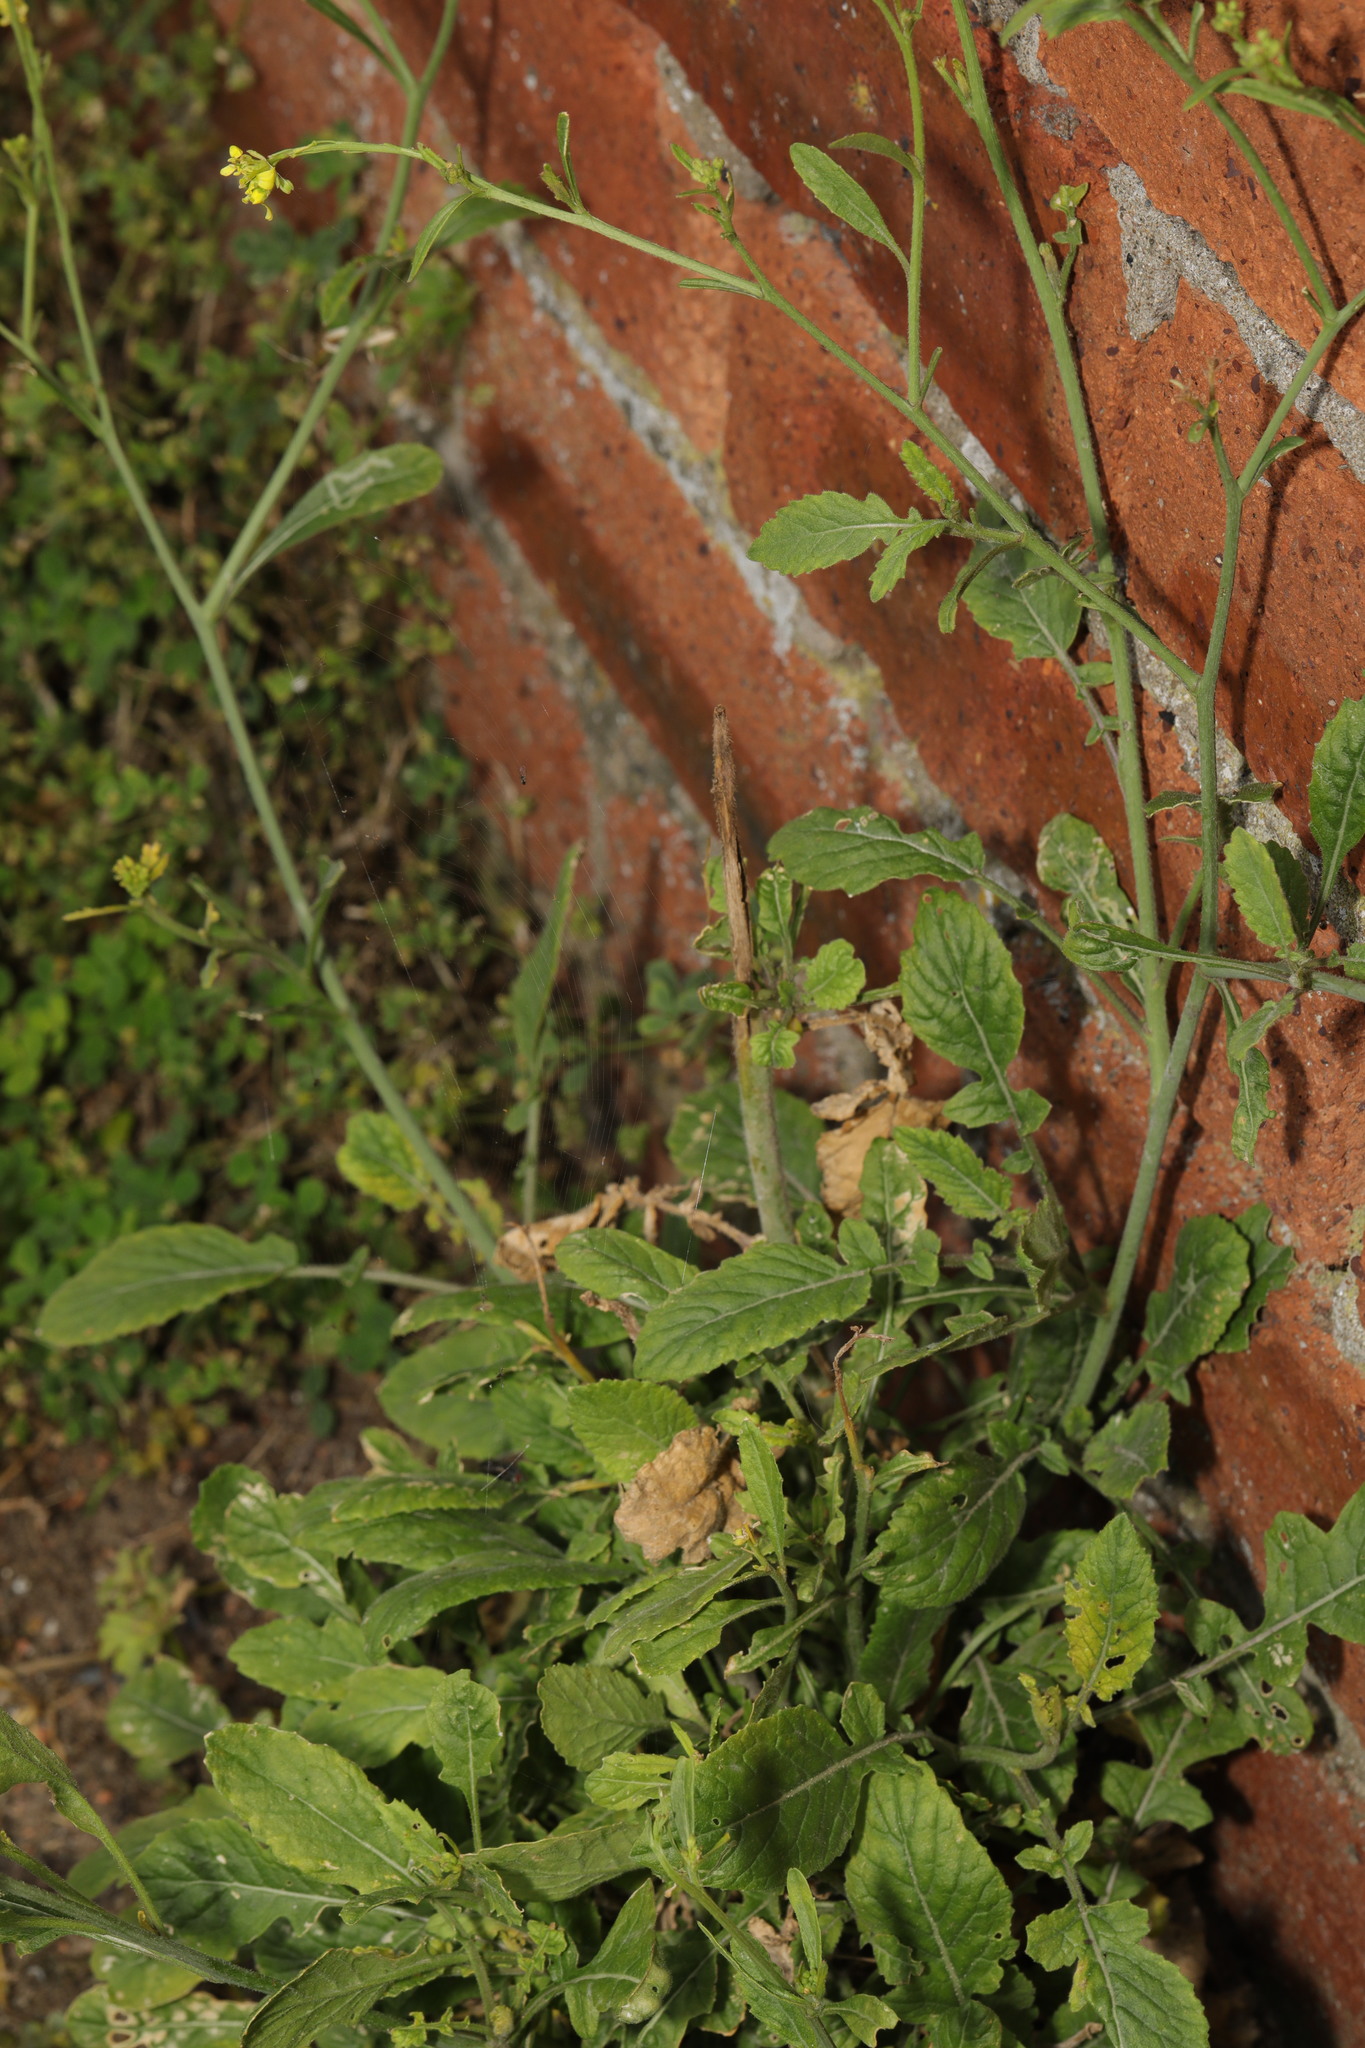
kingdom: Plantae
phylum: Tracheophyta
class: Magnoliopsida
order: Brassicales
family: Brassicaceae
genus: Hirschfeldia
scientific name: Hirschfeldia incana
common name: Hoary mustard
